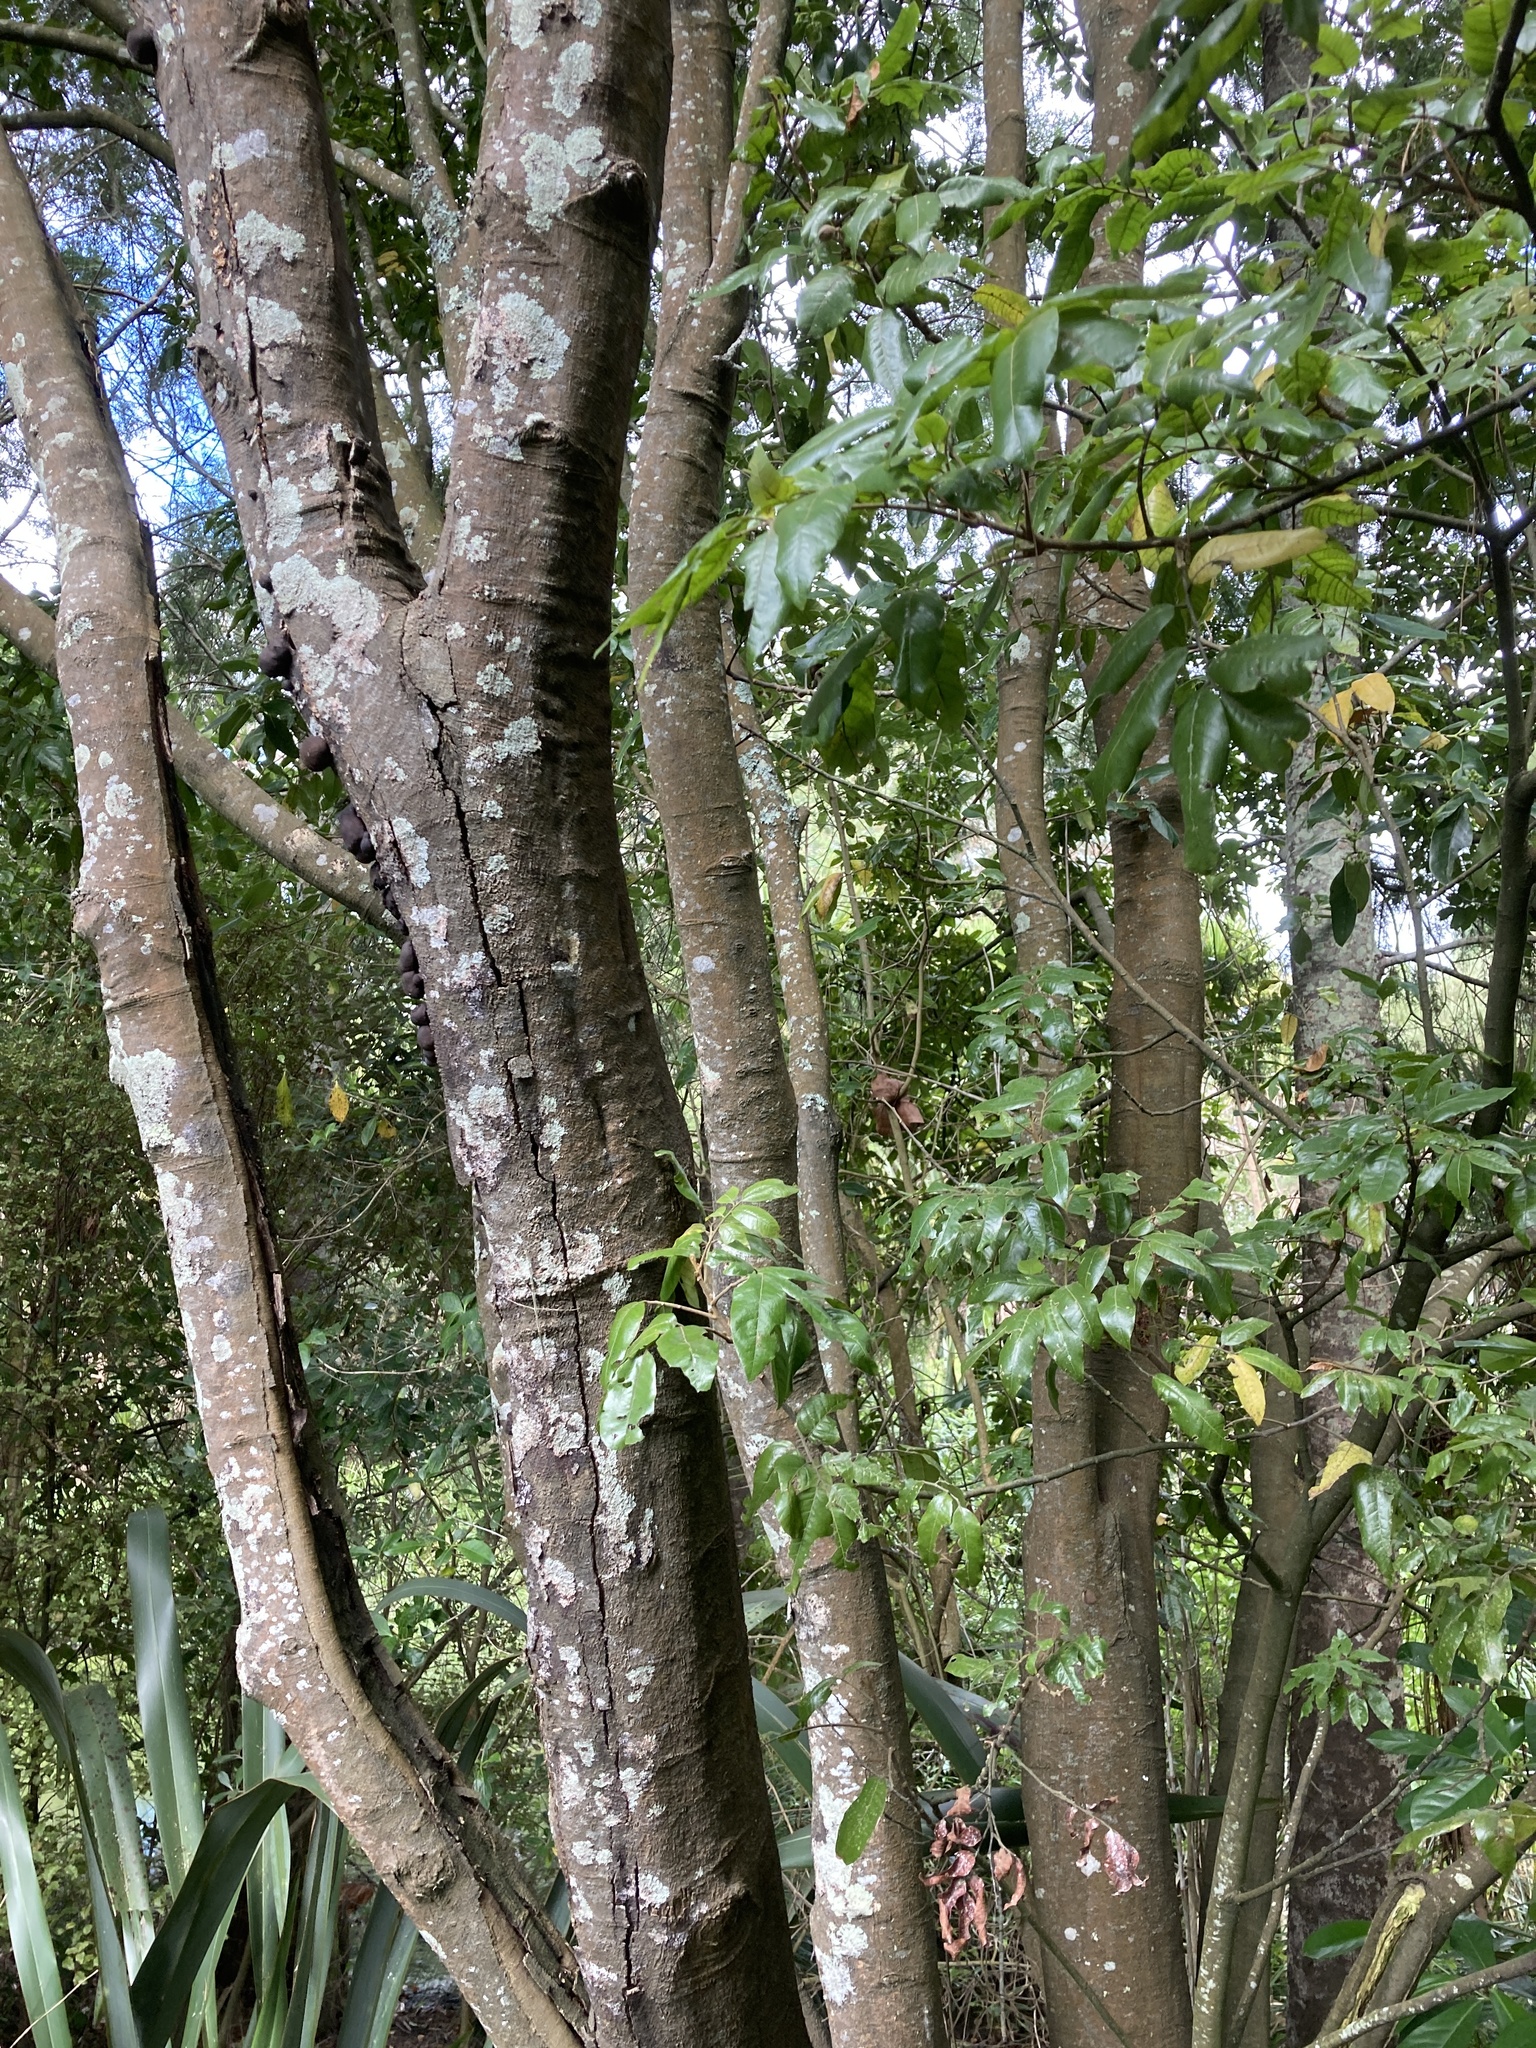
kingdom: Plantae
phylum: Tracheophyta
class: Magnoliopsida
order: Sapindales
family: Sapindaceae
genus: Alectryon
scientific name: Alectryon excelsus
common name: Three kings titoki
